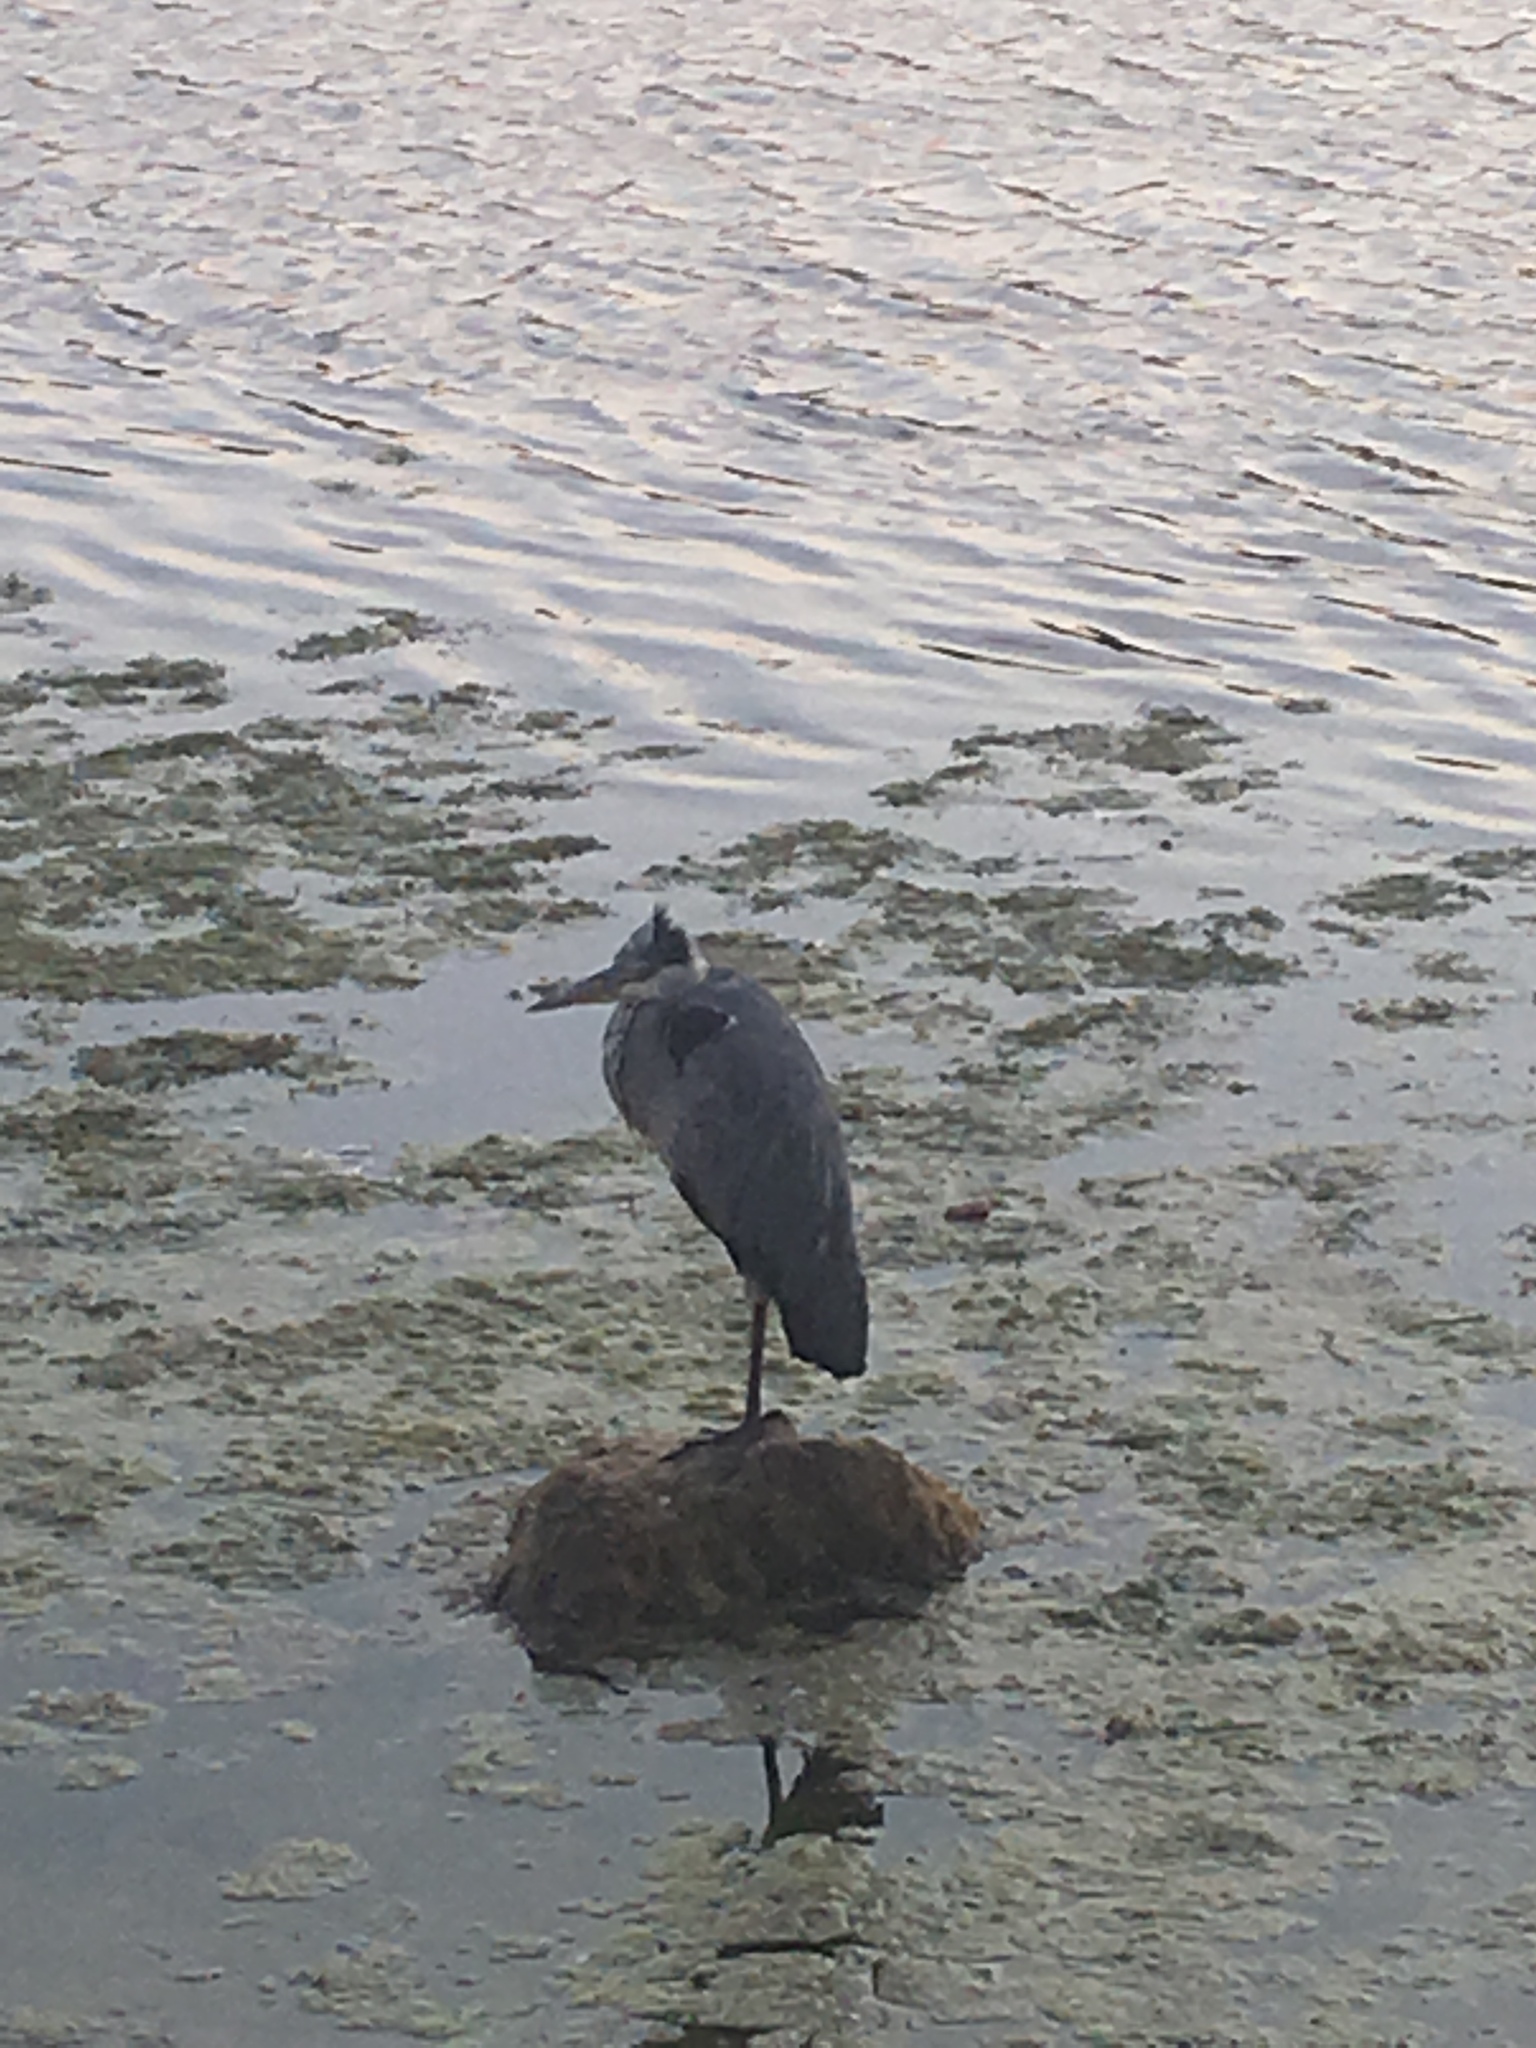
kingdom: Animalia
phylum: Chordata
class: Aves
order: Pelecaniformes
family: Ardeidae
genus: Ardea
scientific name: Ardea cinerea
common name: Grey heron
